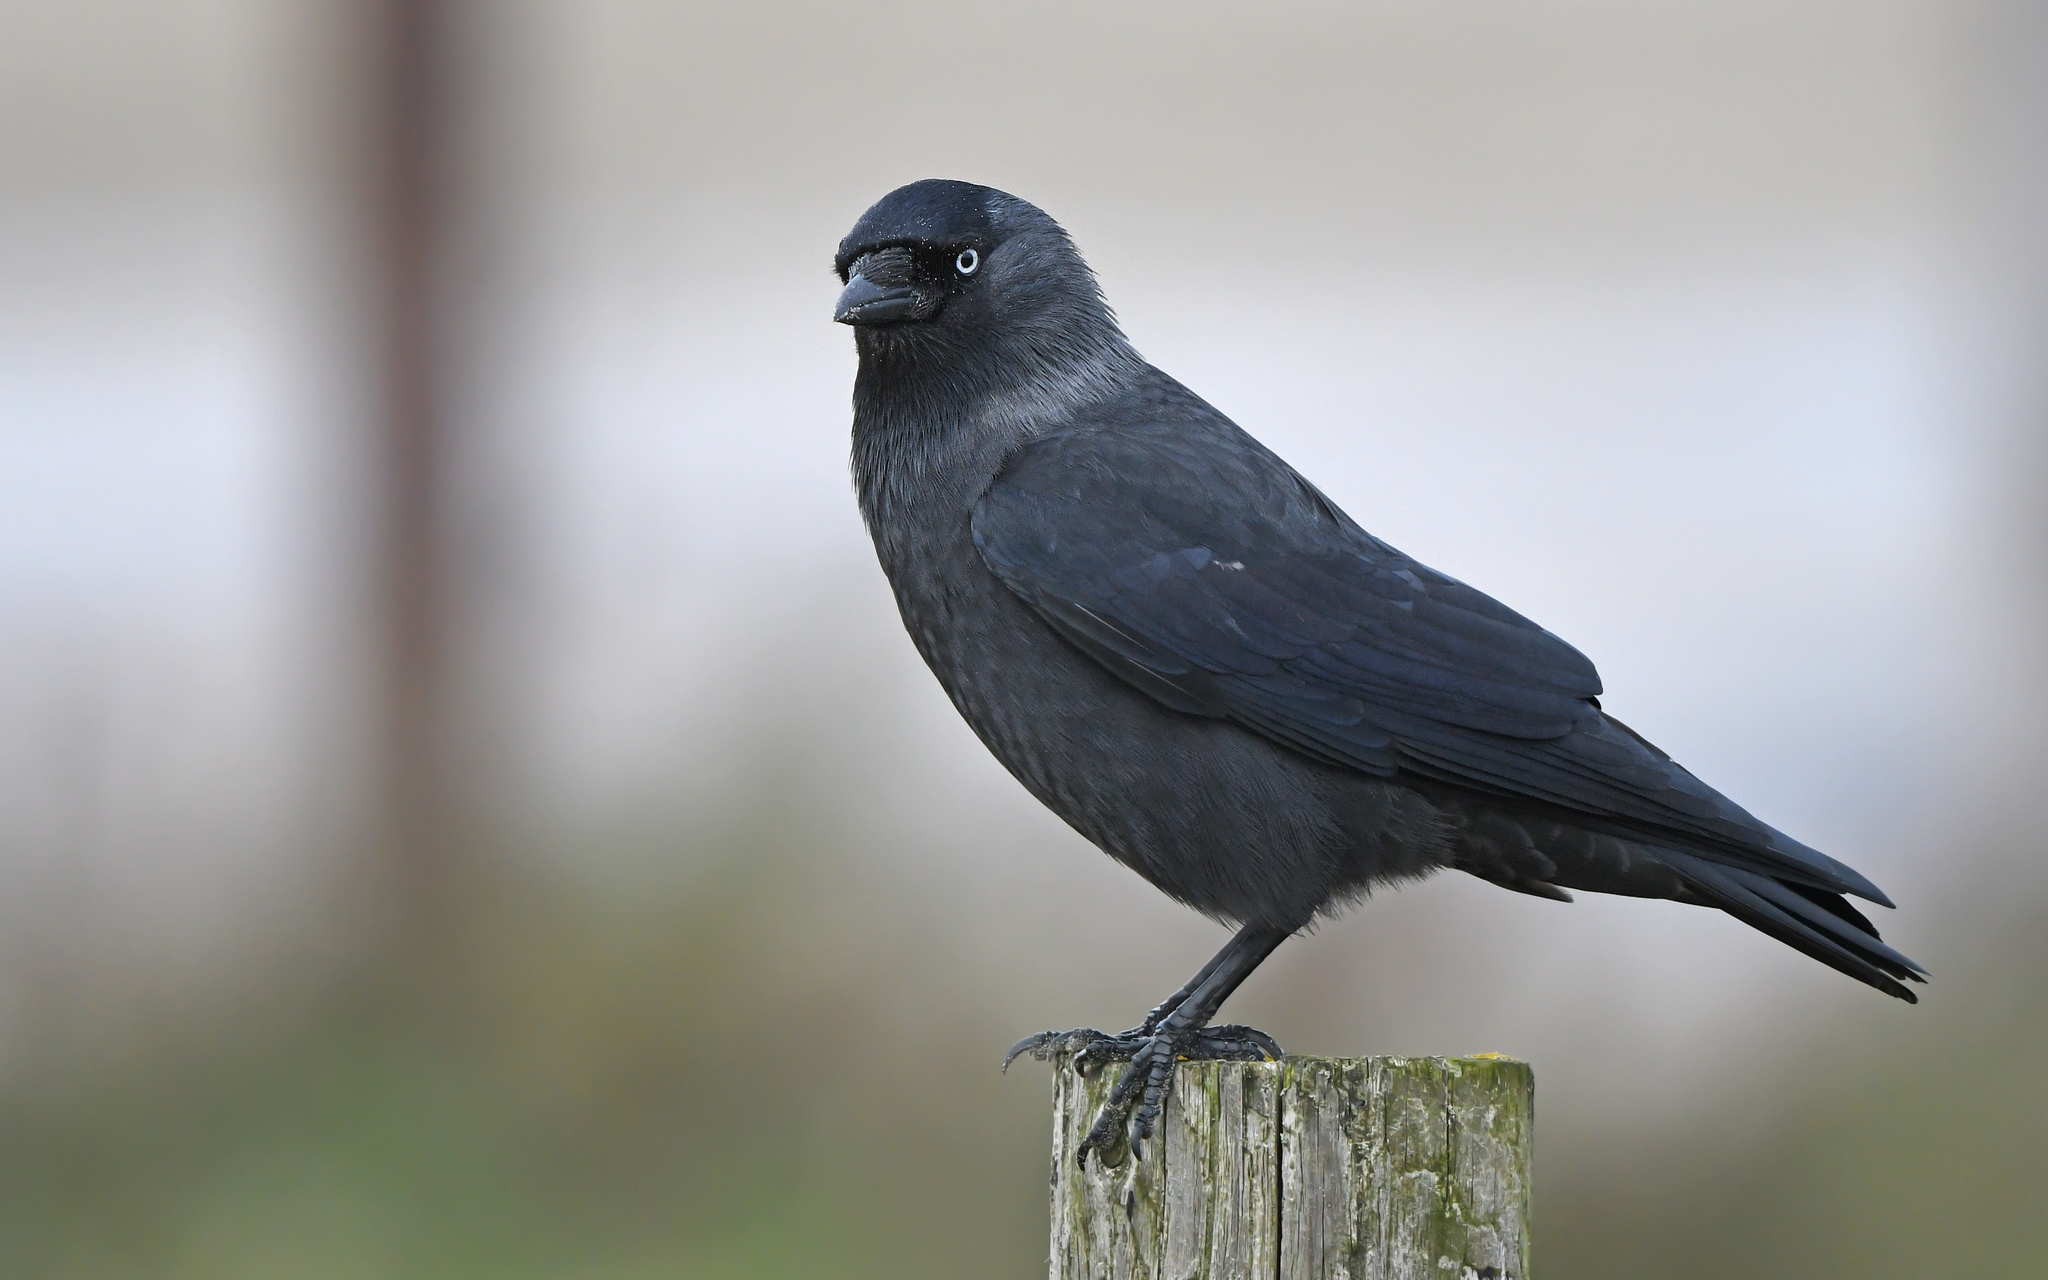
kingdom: Animalia
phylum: Chordata
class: Aves
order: Passeriformes
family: Corvidae
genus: Coloeus
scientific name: Coloeus monedula
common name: Western jackdaw
